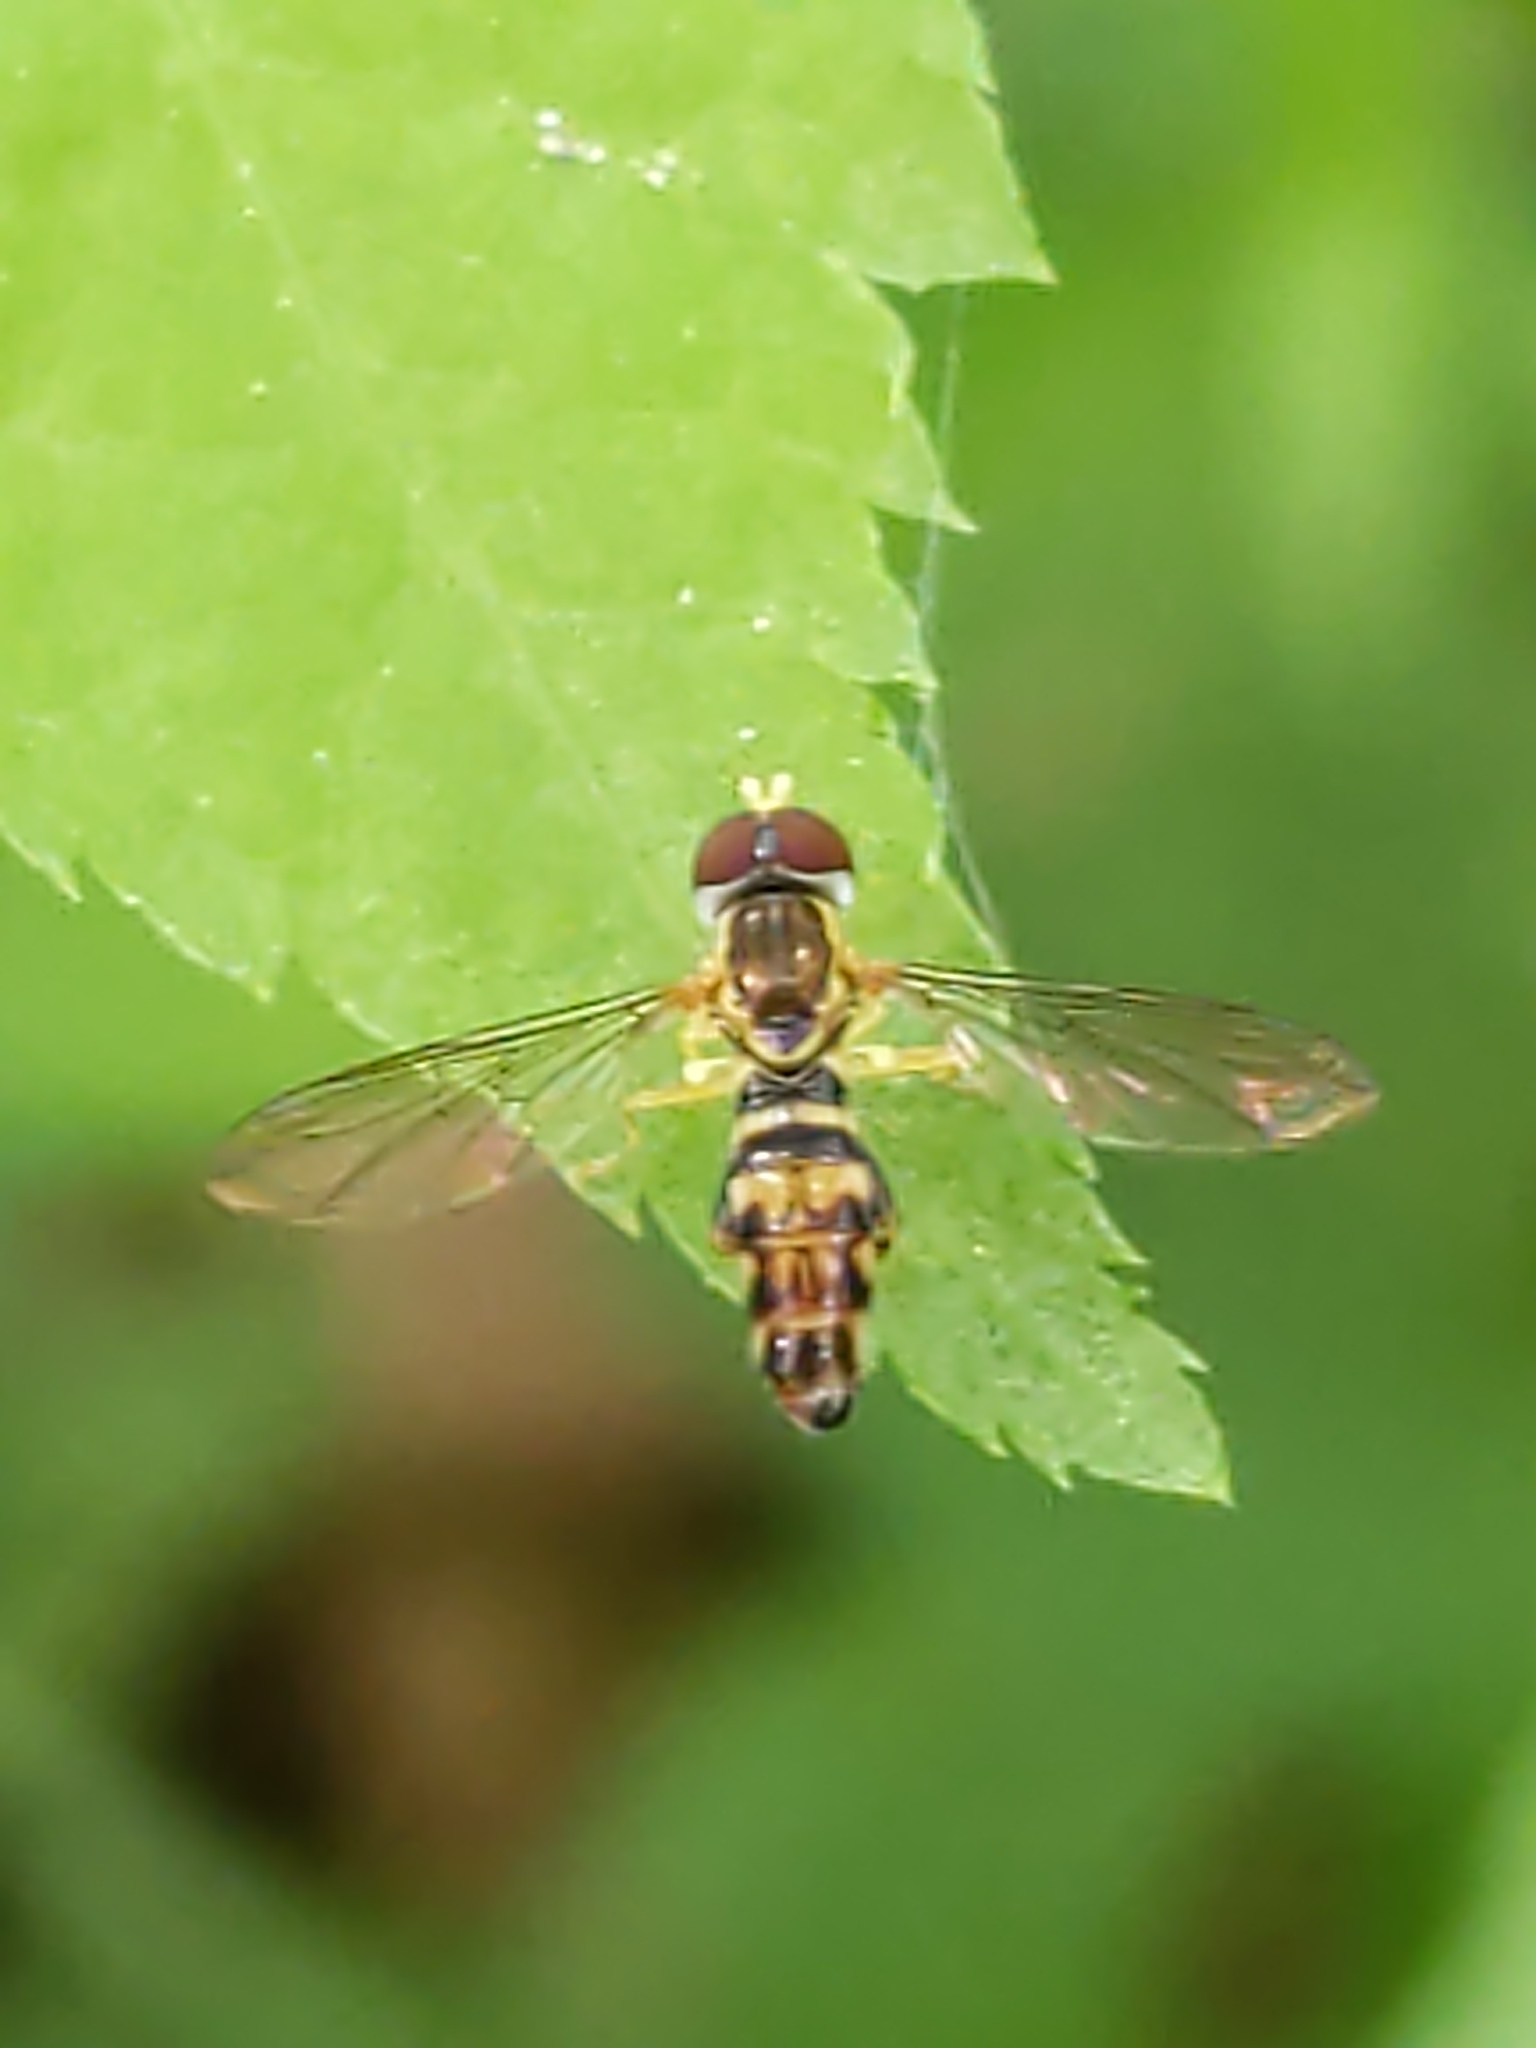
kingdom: Animalia
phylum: Arthropoda
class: Insecta
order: Diptera
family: Syrphidae
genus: Toxomerus
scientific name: Toxomerus geminatus
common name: Eastern calligrapher
